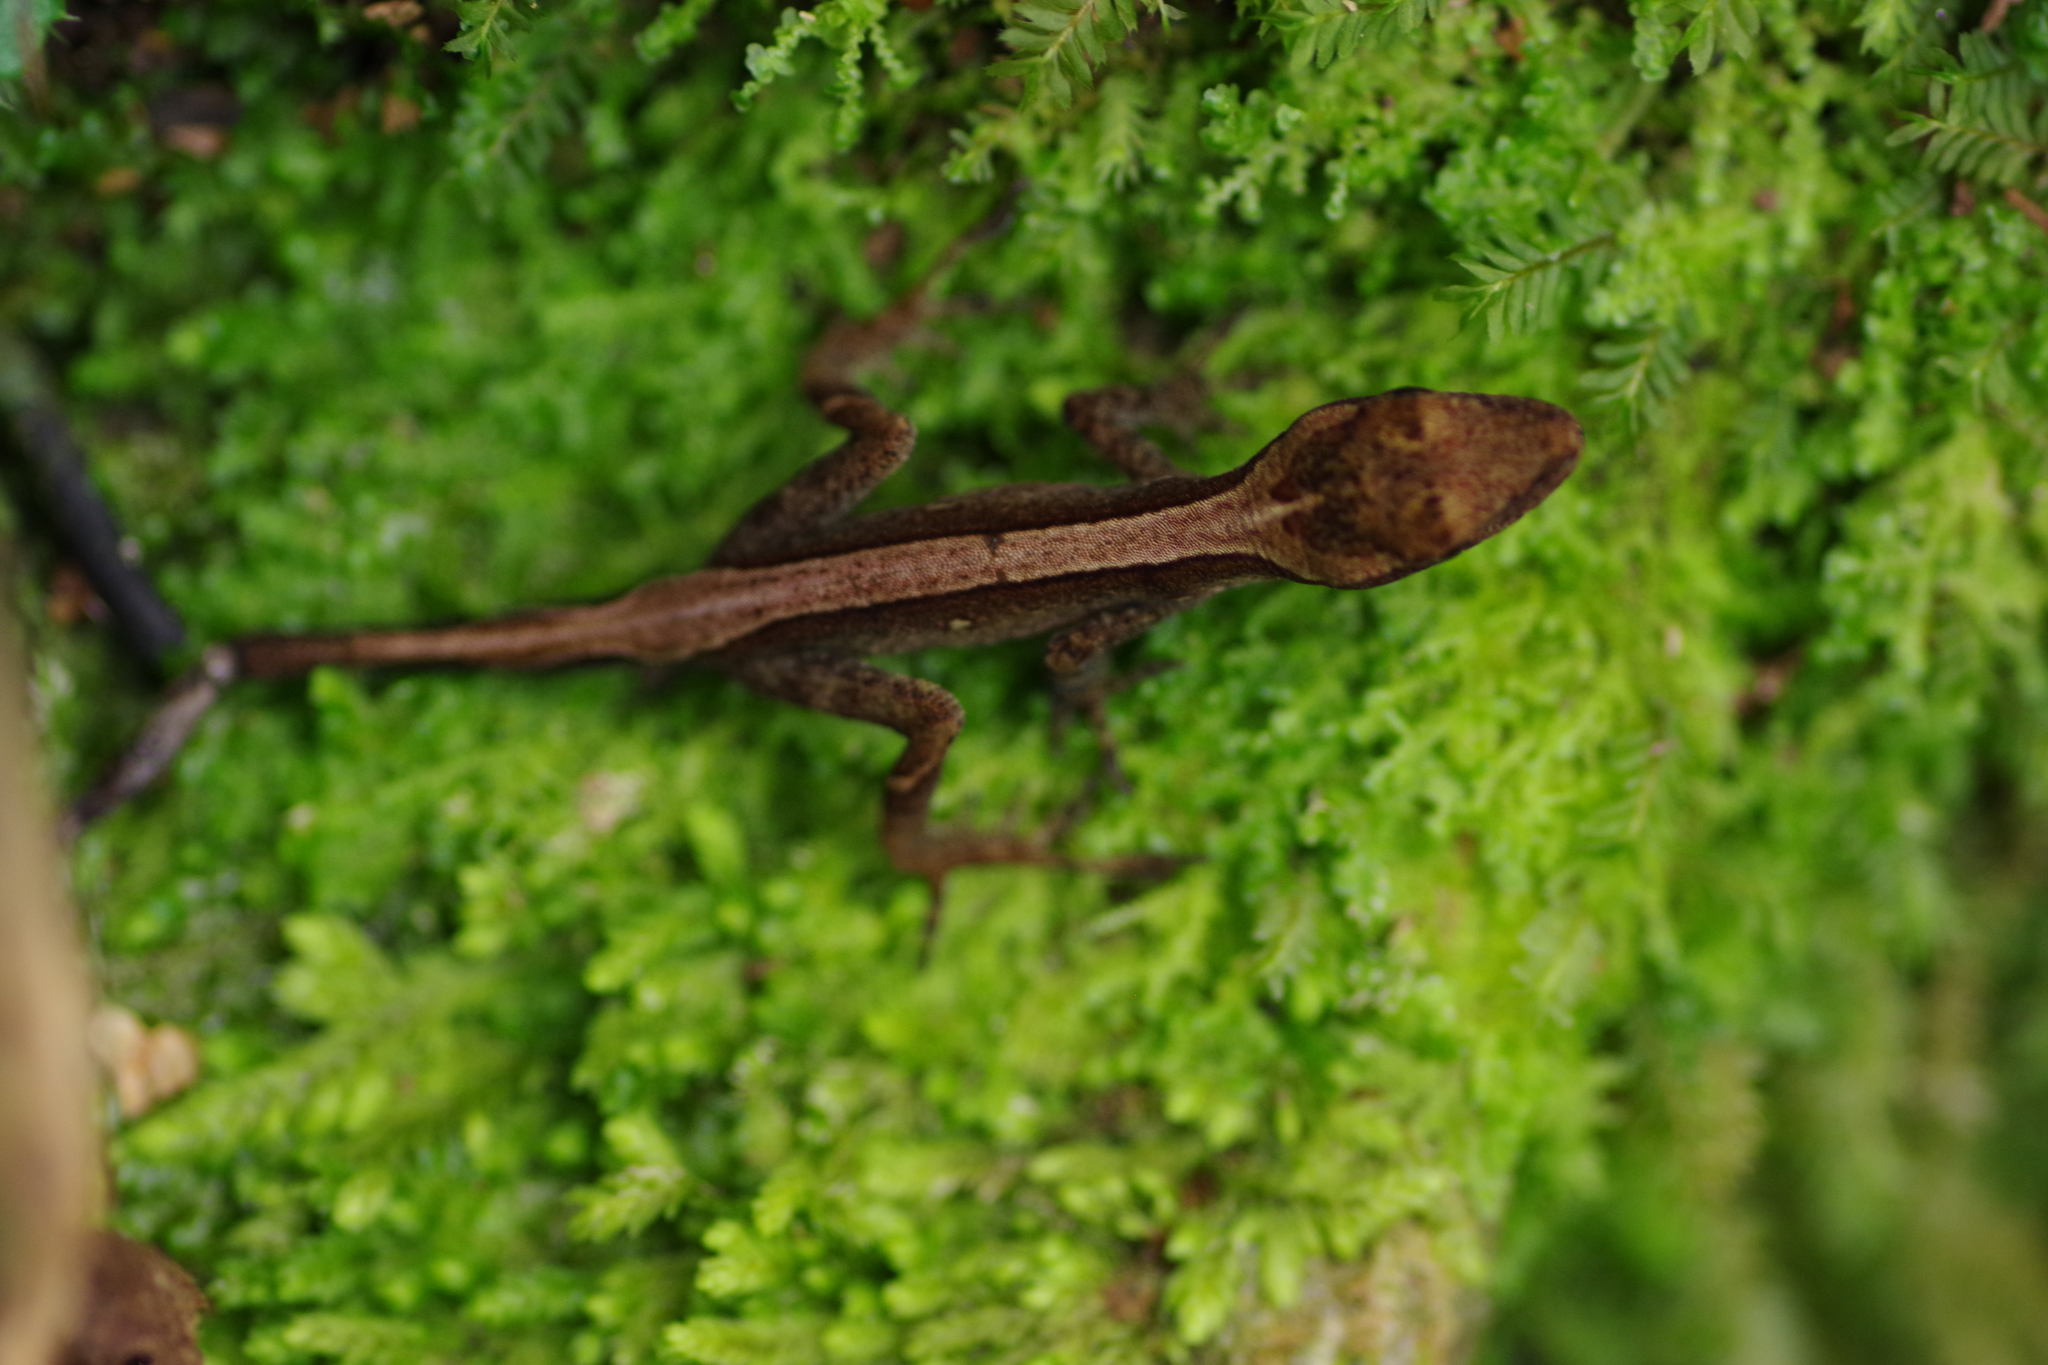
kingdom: Animalia
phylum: Chordata
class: Squamata
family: Dactyloidae
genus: Anolis
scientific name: Anolis lemurinus
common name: Ghost anole
